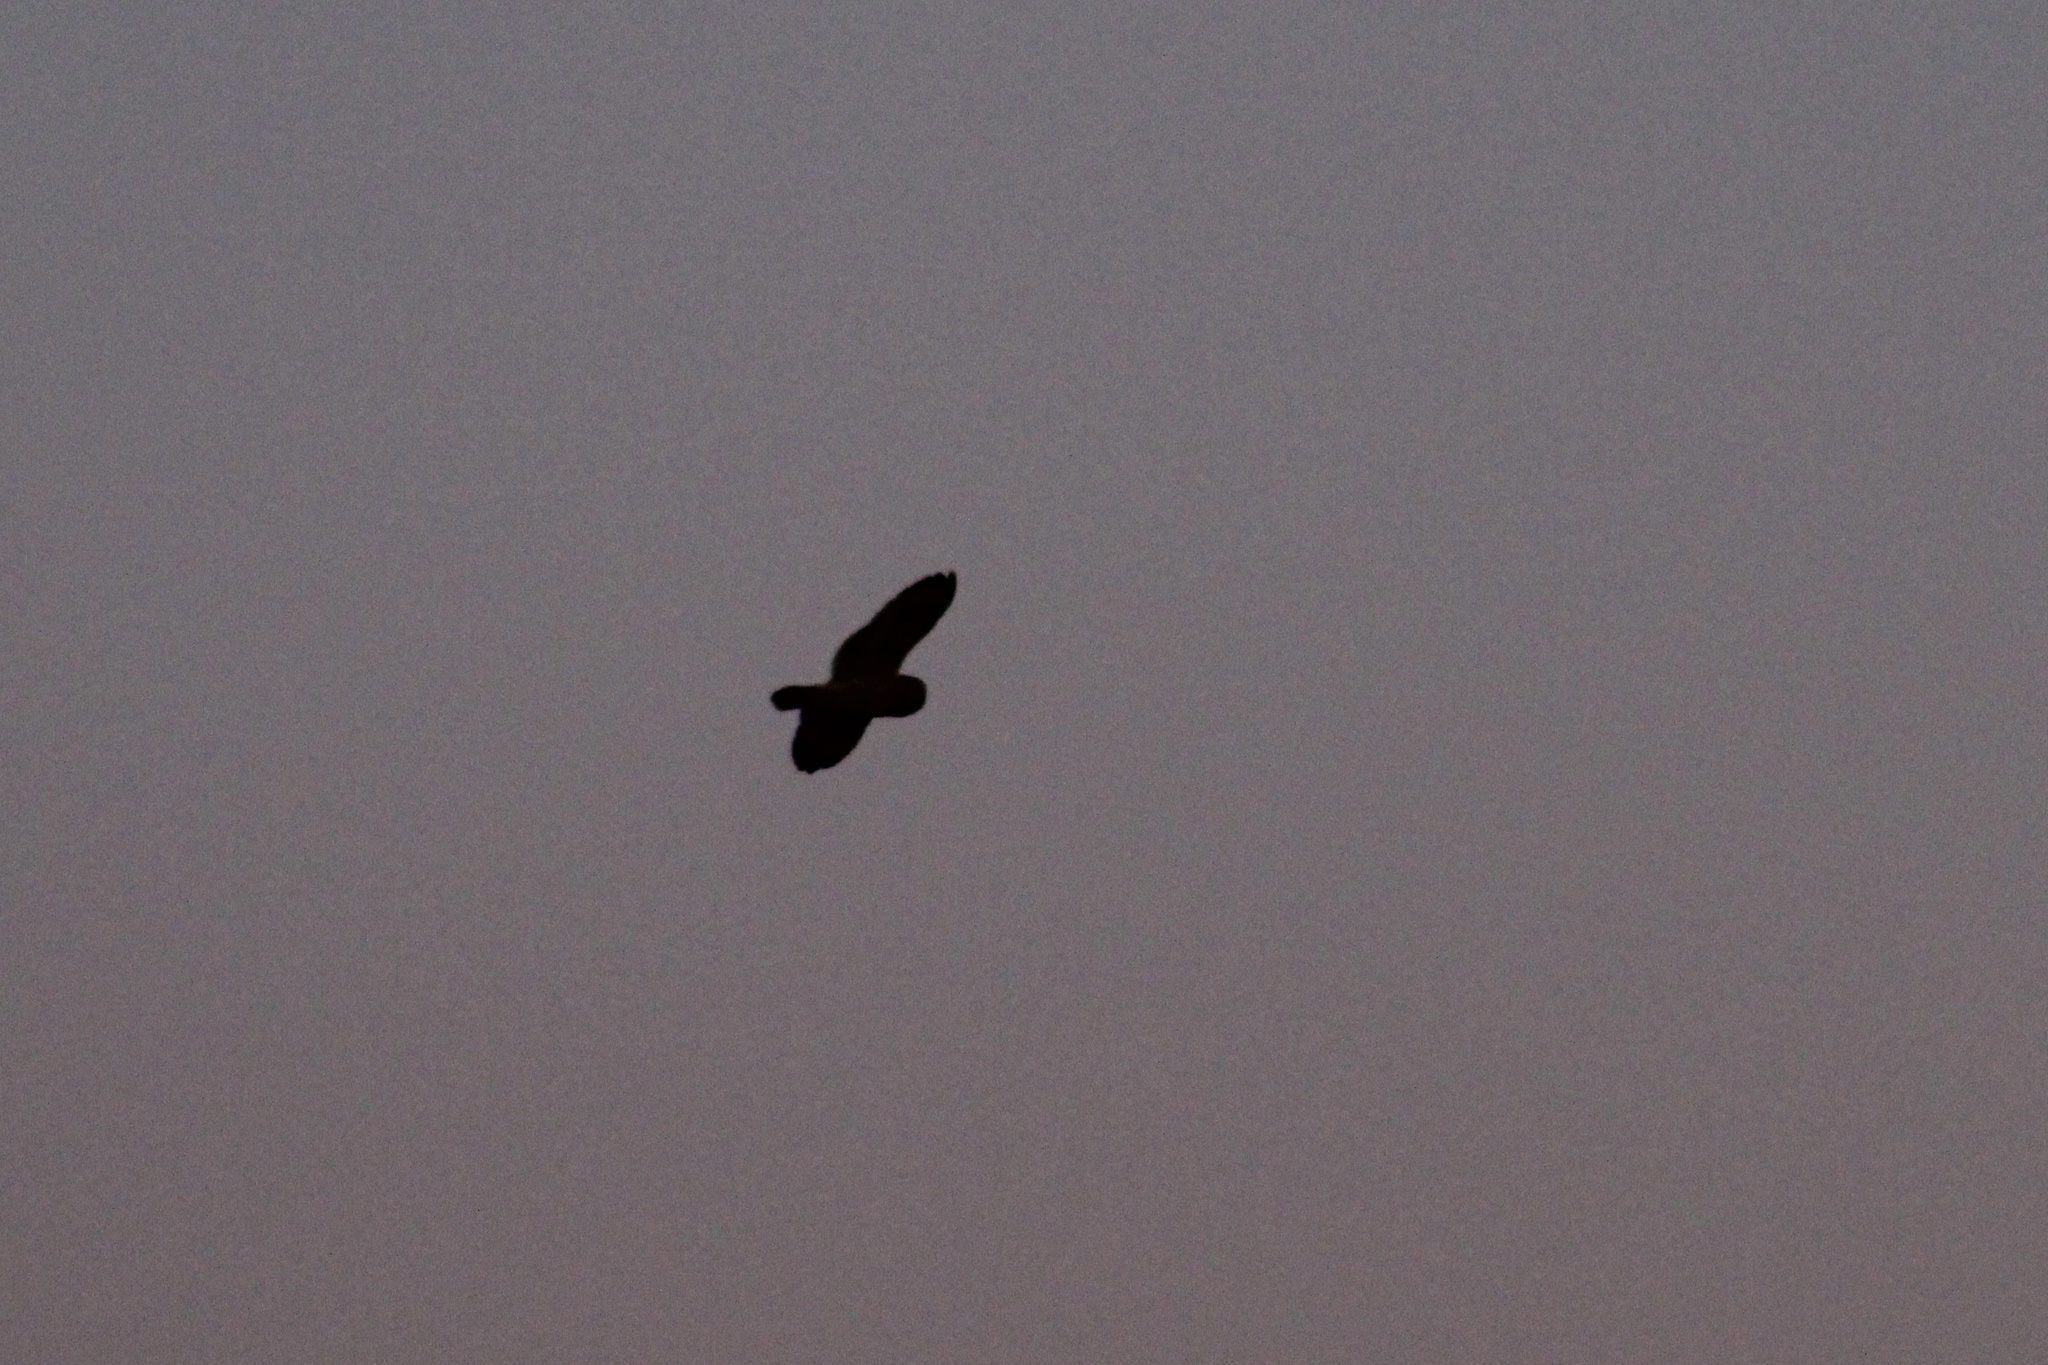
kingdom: Animalia
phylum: Chordata
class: Aves
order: Strigiformes
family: Strigidae
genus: Asio
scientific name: Asio flammeus
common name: Short-eared owl
